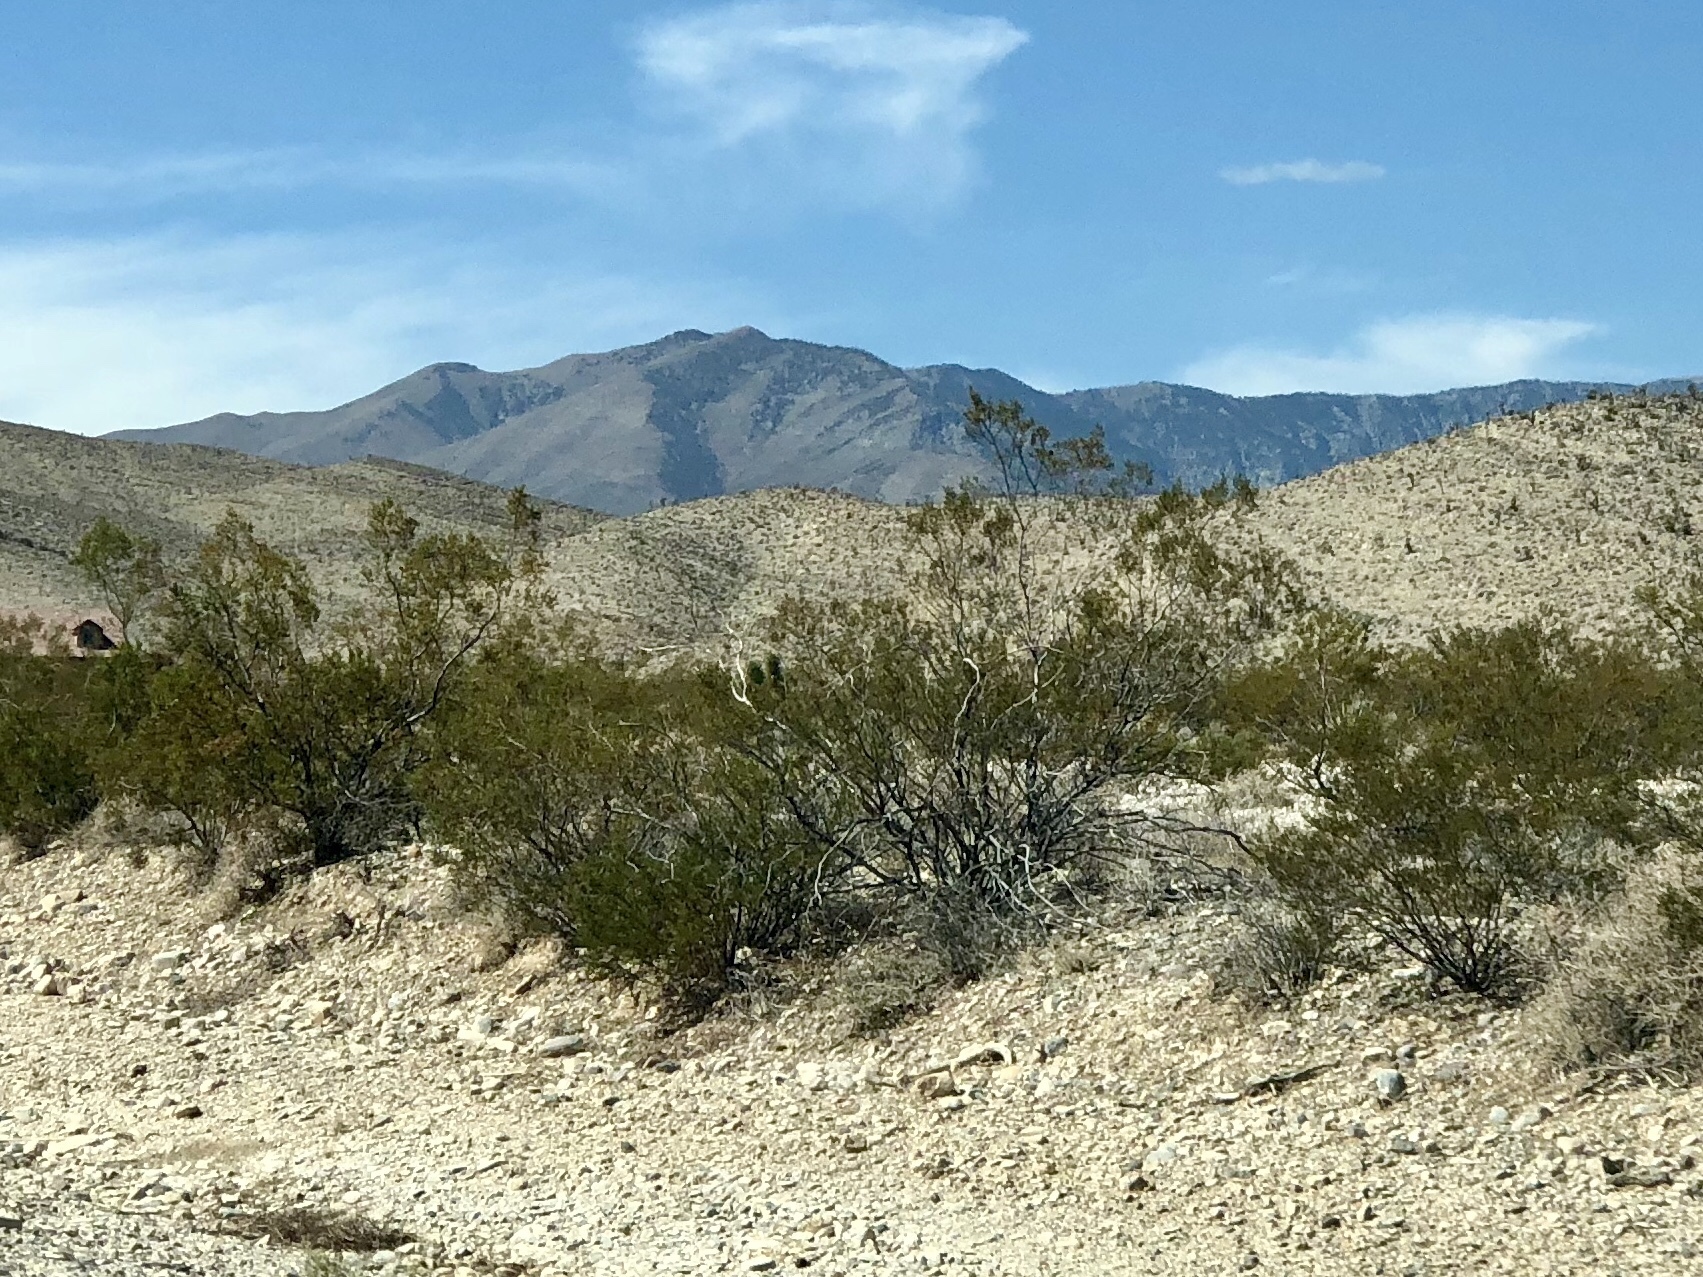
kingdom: Plantae
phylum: Tracheophyta
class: Magnoliopsida
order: Zygophyllales
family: Zygophyllaceae
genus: Larrea
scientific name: Larrea tridentata
